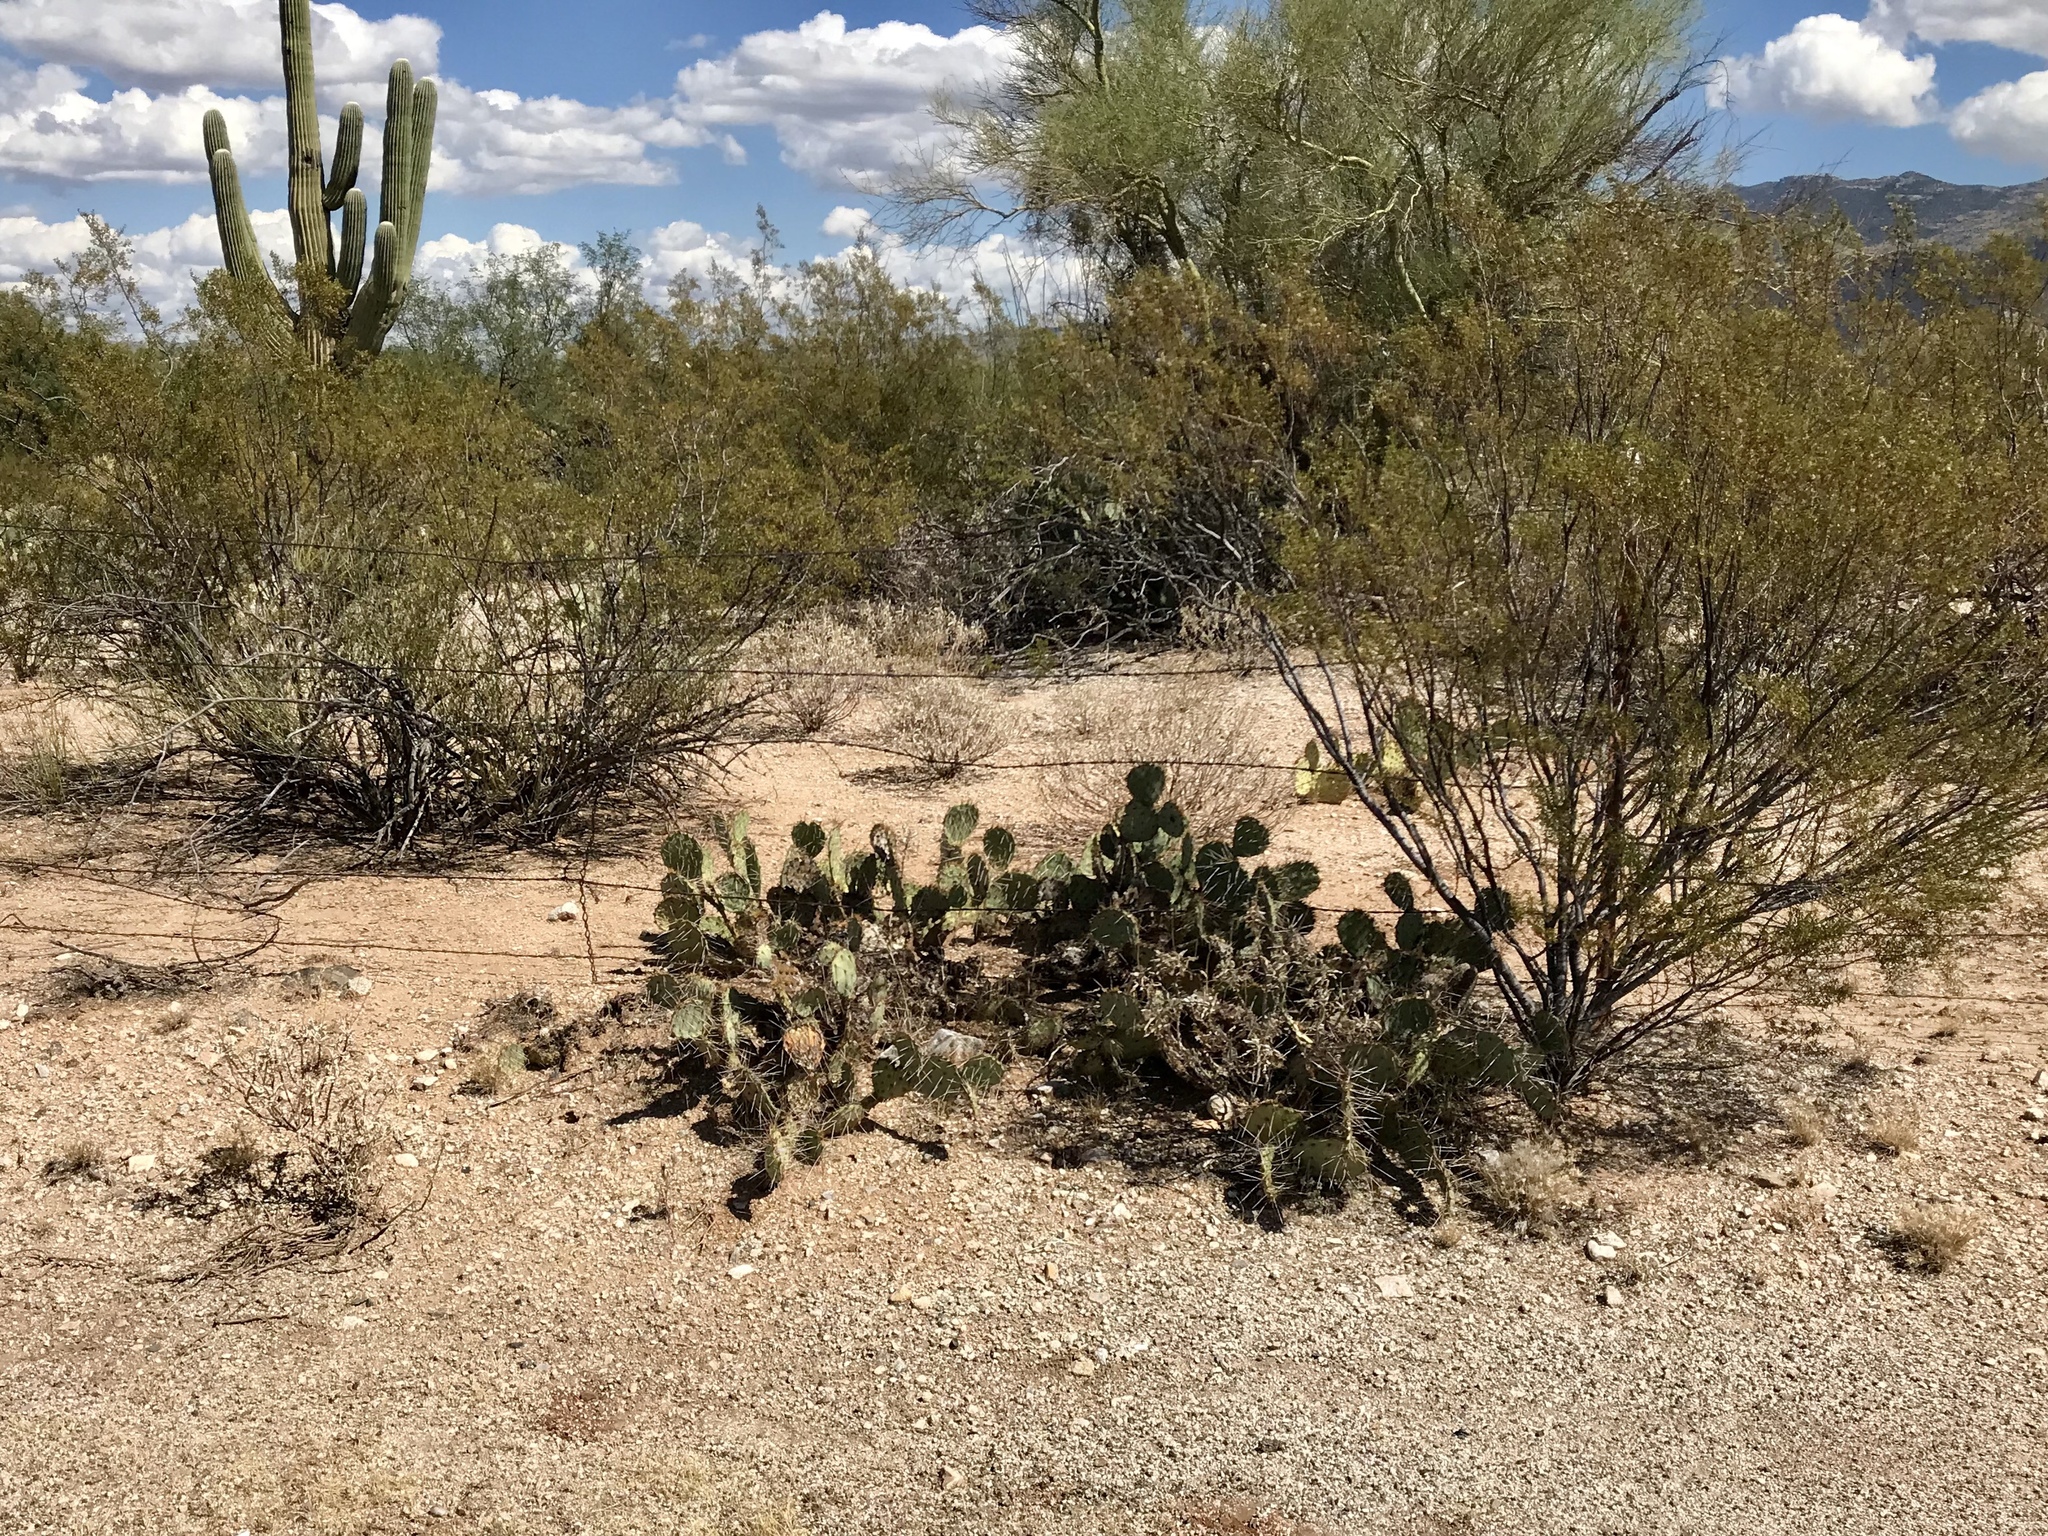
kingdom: Plantae
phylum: Tracheophyta
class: Magnoliopsida
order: Caryophyllales
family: Cactaceae
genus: Opuntia
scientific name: Opuntia phaeacantha
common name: New mexico prickly-pear
